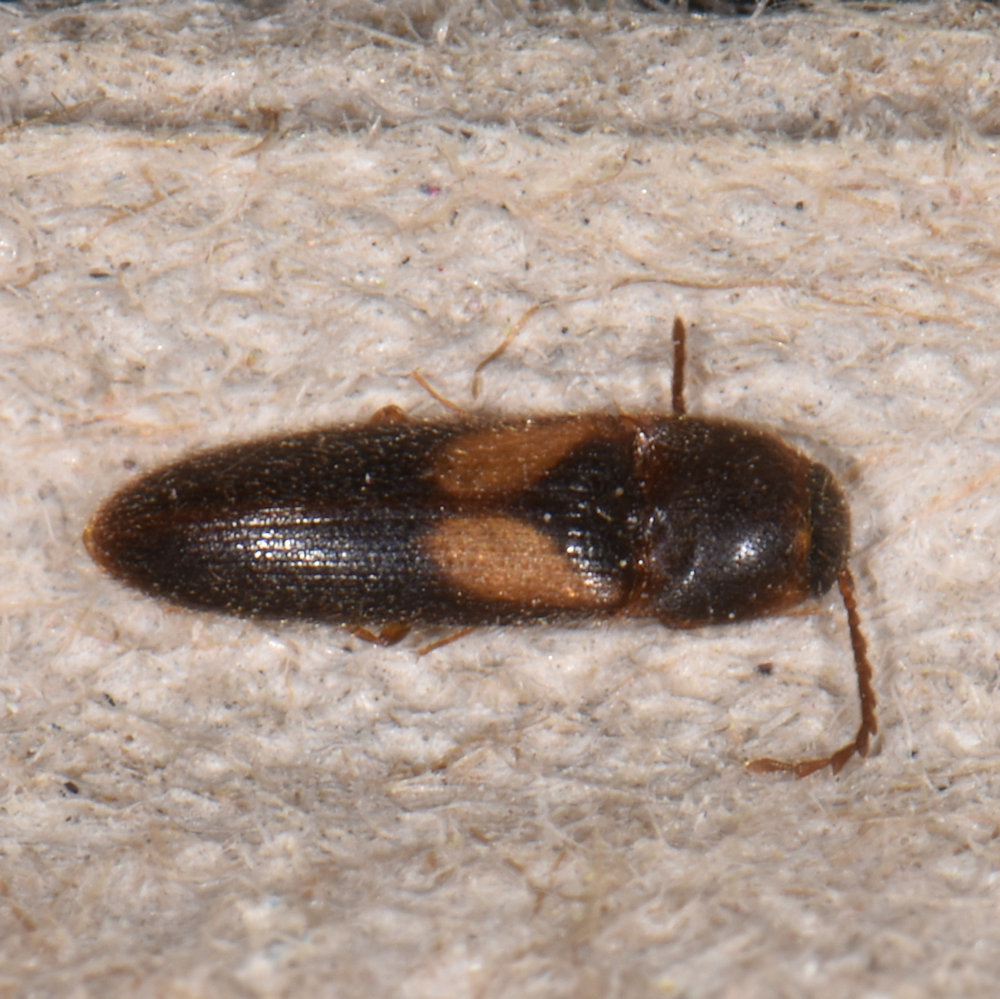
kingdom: Animalia
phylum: Arthropoda
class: Insecta
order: Coleoptera
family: Elateridae
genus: Ampedus
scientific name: Ampedus areolatus
